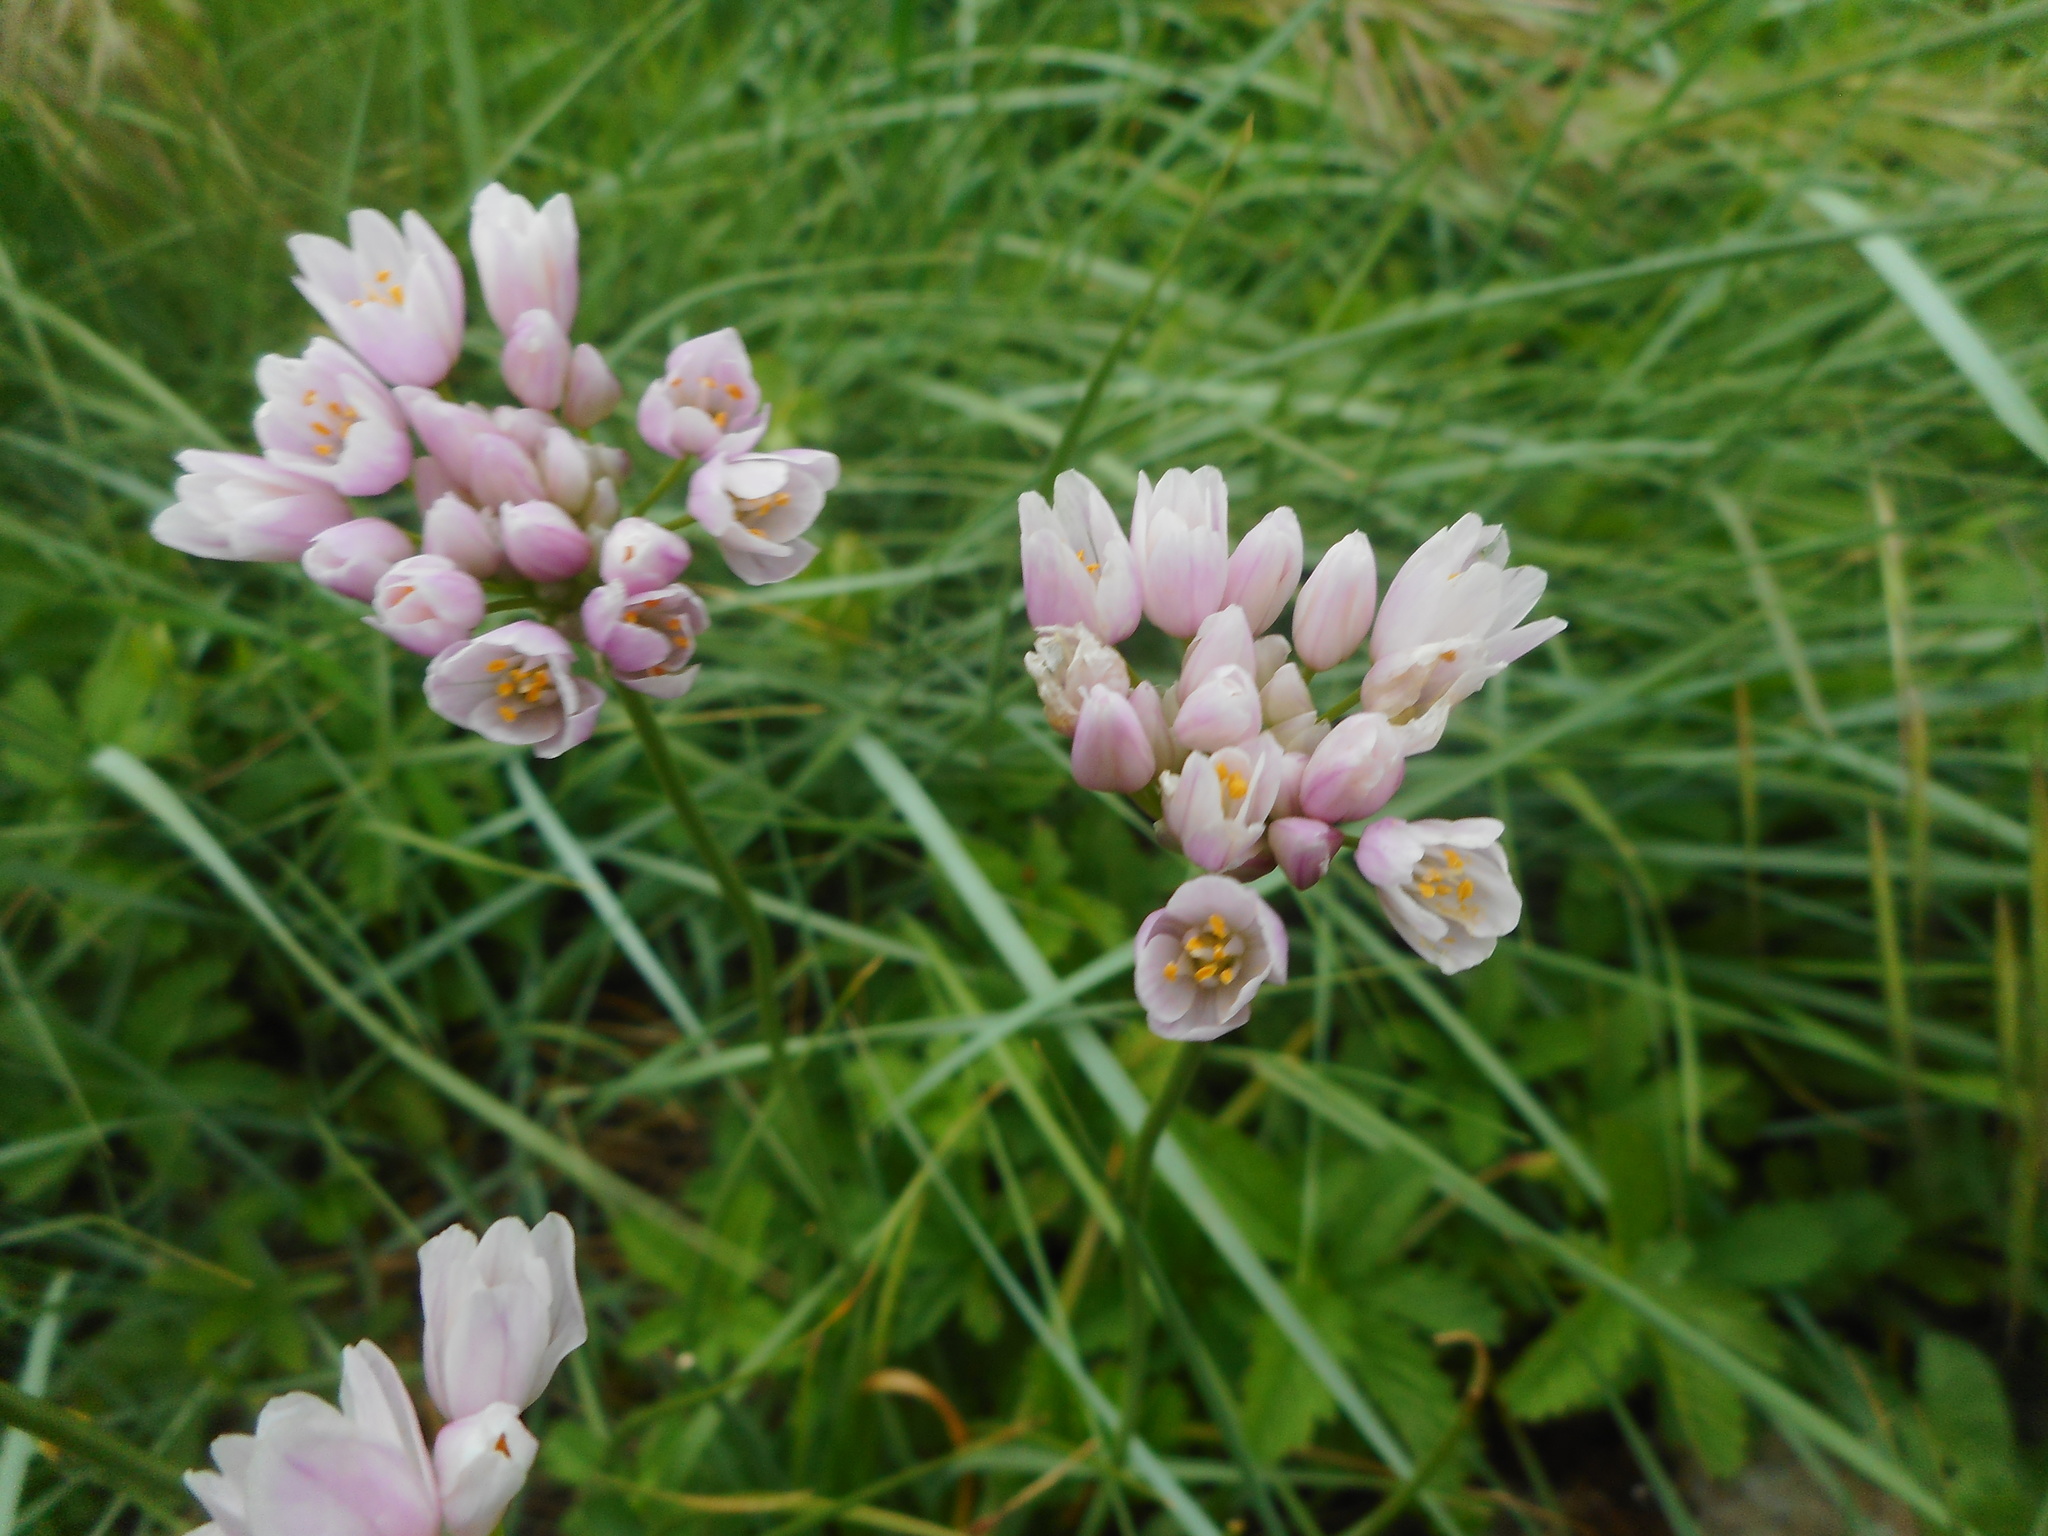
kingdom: Plantae
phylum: Tracheophyta
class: Liliopsida
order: Asparagales
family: Amaryllidaceae
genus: Allium
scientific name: Allium roseum
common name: Rosy garlic
